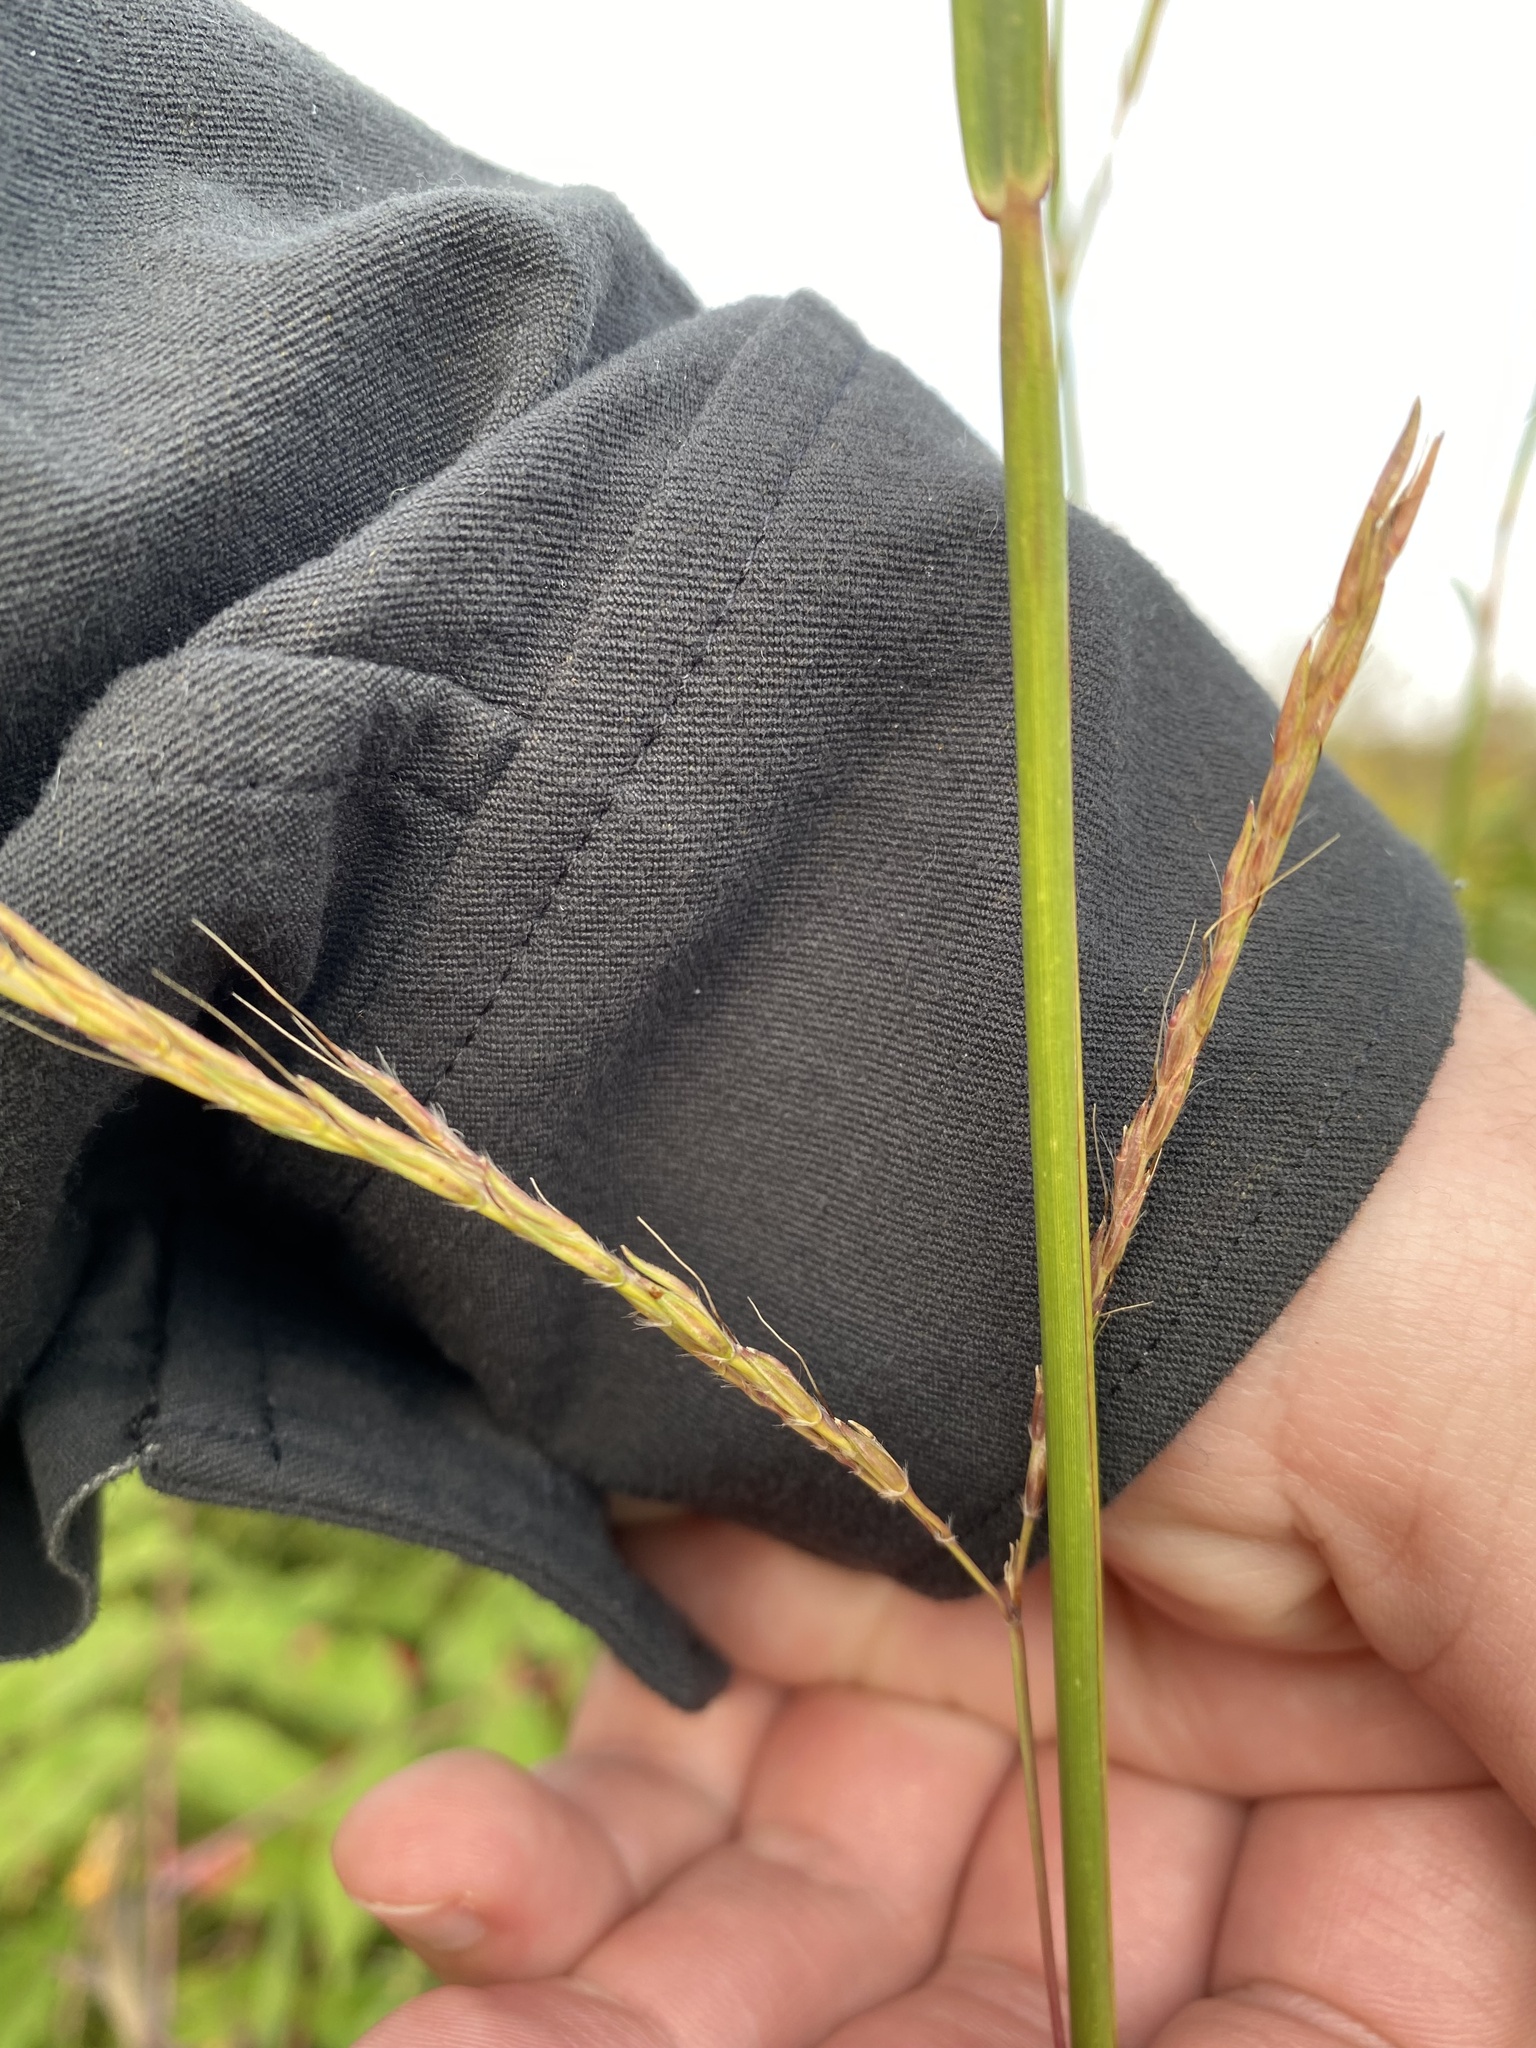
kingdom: Plantae
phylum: Tracheophyta
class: Liliopsida
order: Poales
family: Poaceae
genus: Andropogon
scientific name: Andropogon gerardi
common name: Big bluestem
